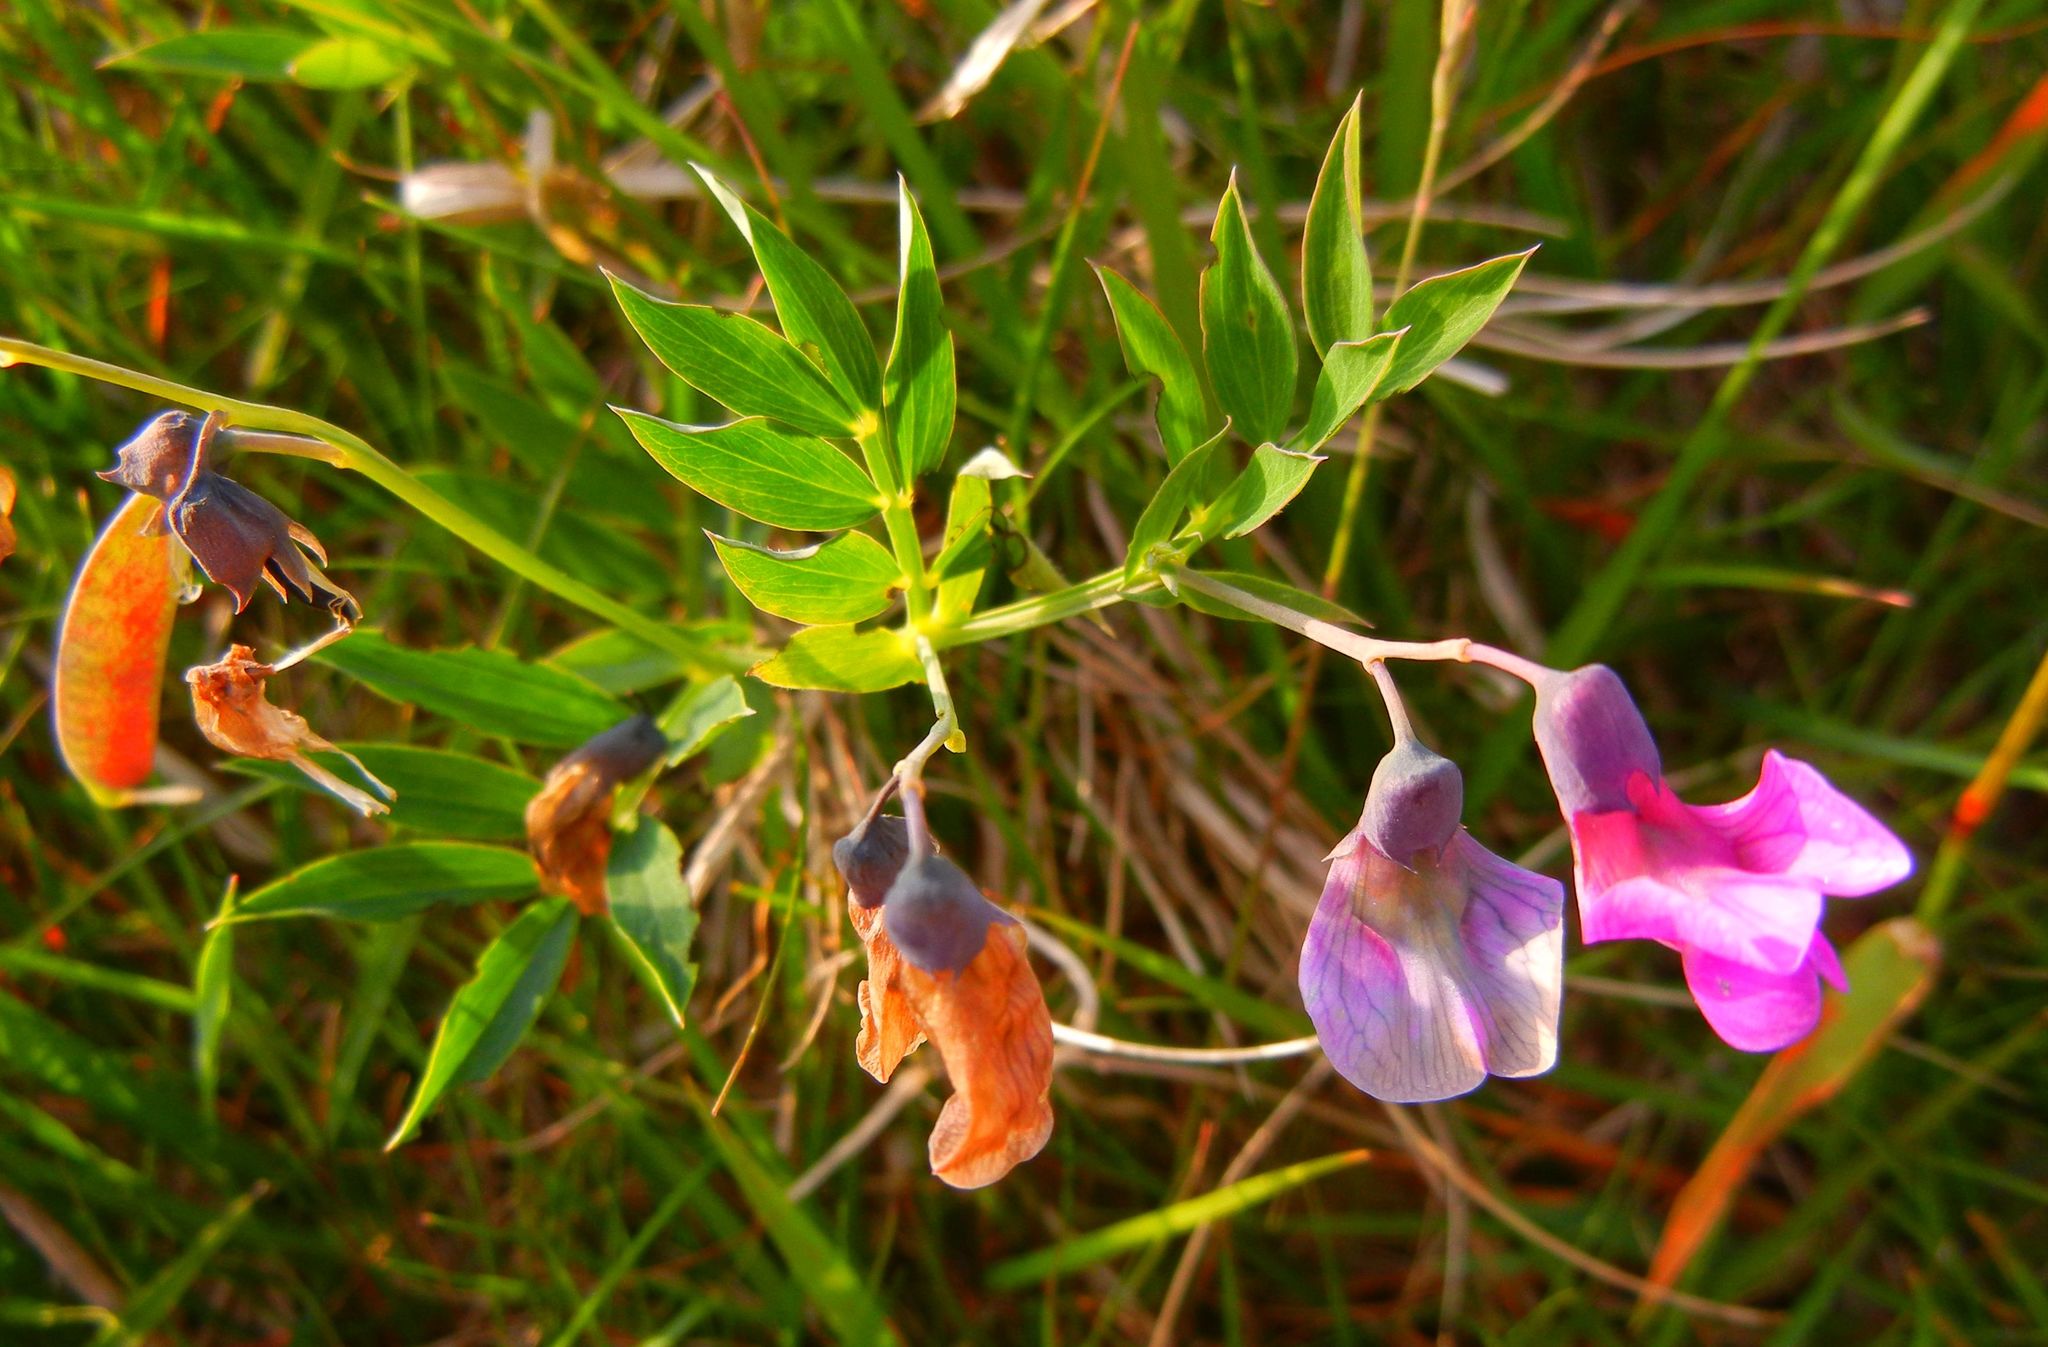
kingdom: Plantae
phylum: Tracheophyta
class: Magnoliopsida
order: Fabales
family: Fabaceae
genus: Lathyrus
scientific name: Lathyrus linifolius
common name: Bitter-vetch
